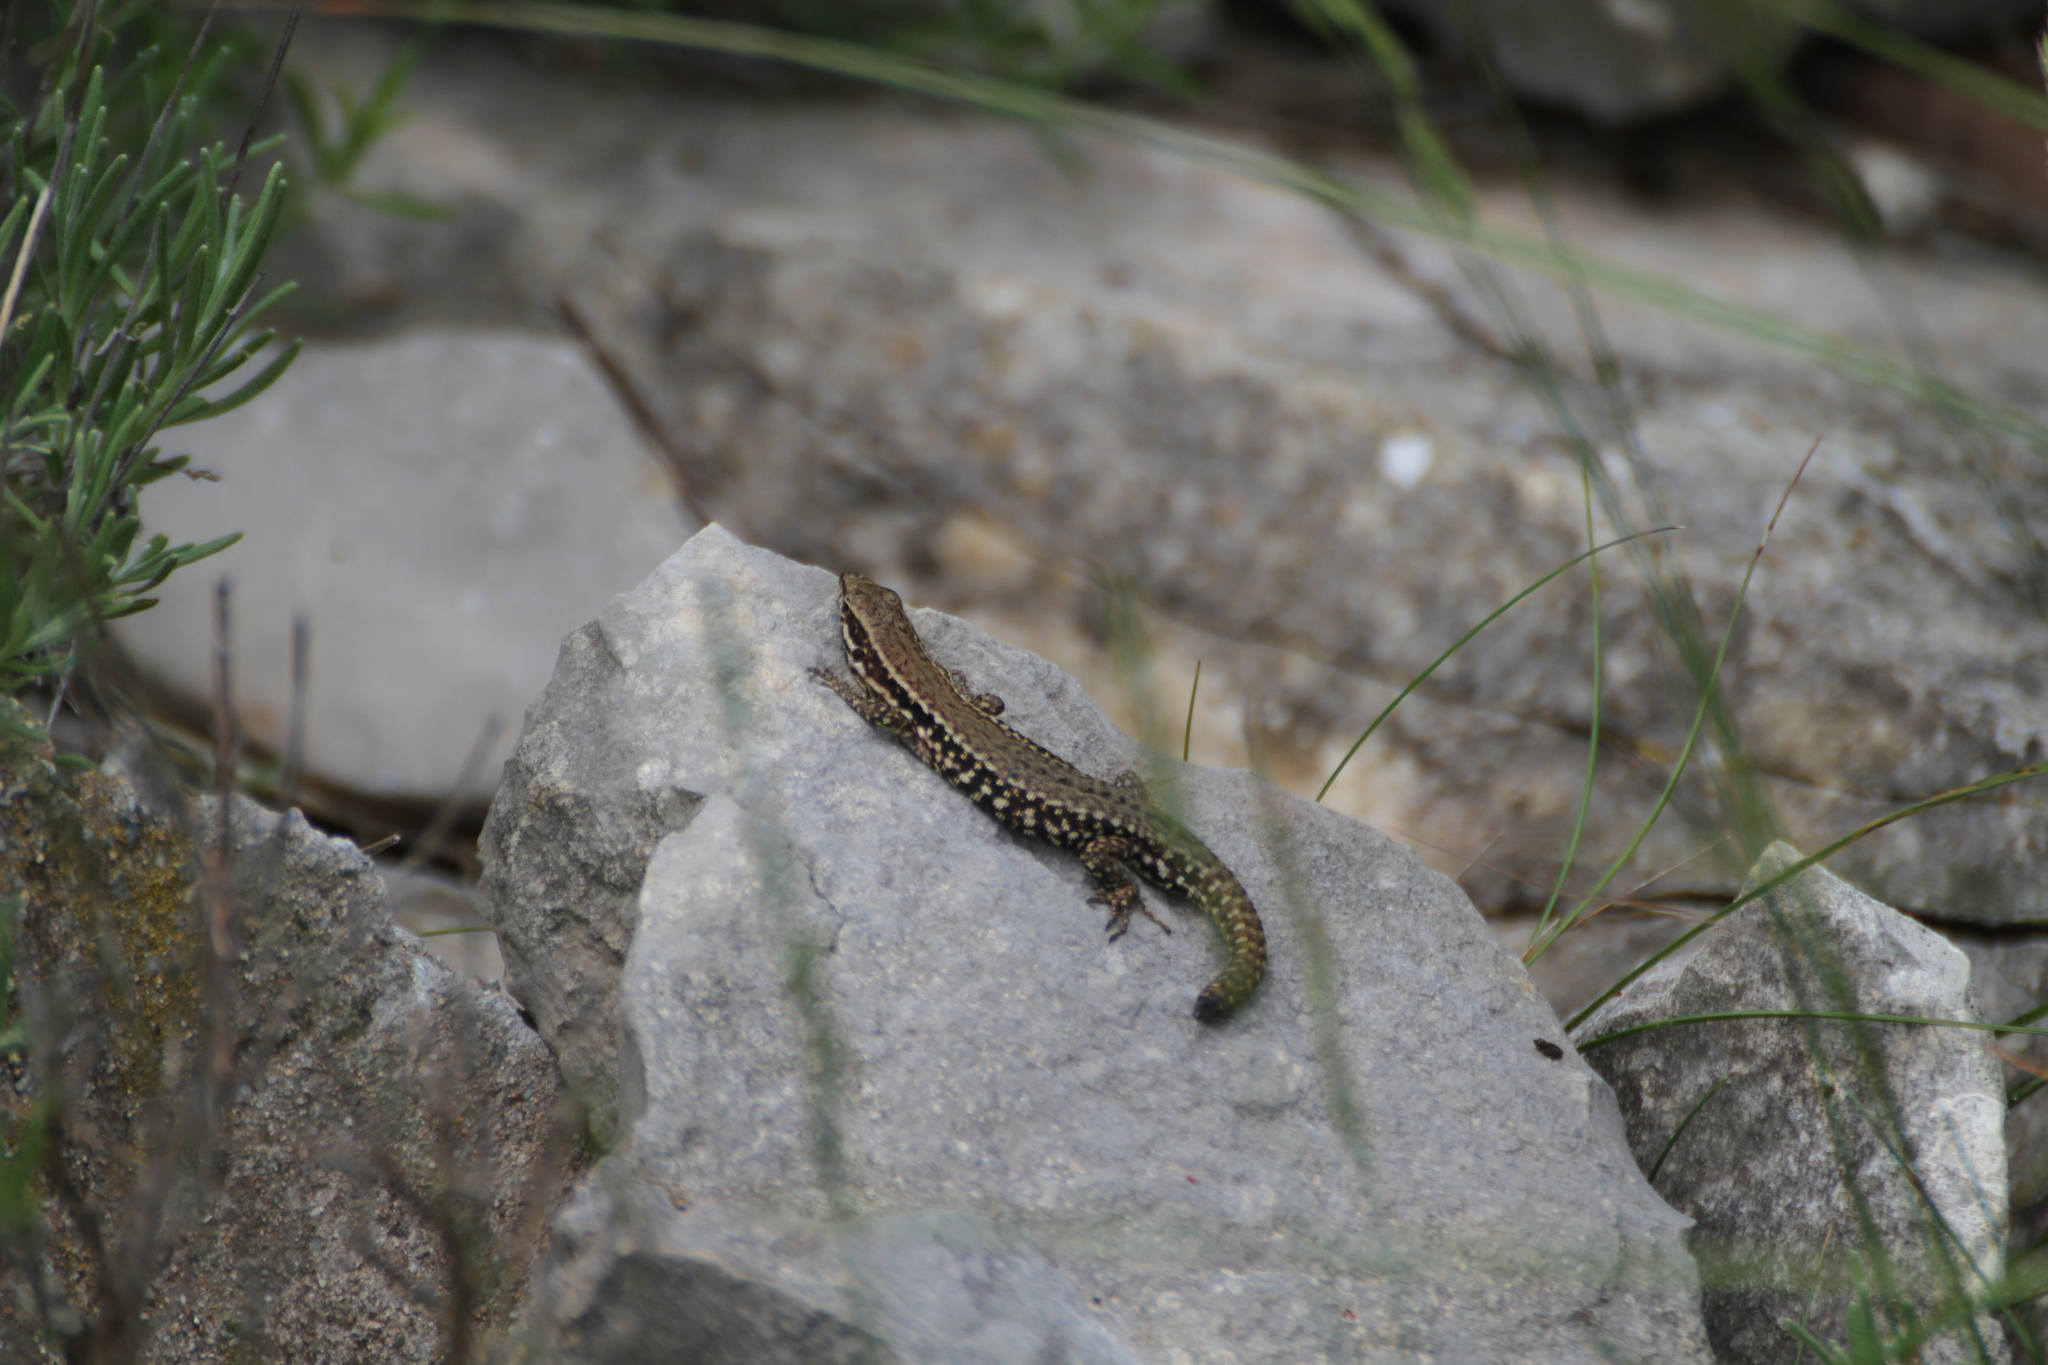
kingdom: Animalia
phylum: Chordata
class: Squamata
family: Lacertidae
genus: Podarcis
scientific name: Podarcis muralis
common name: Common wall lizard
